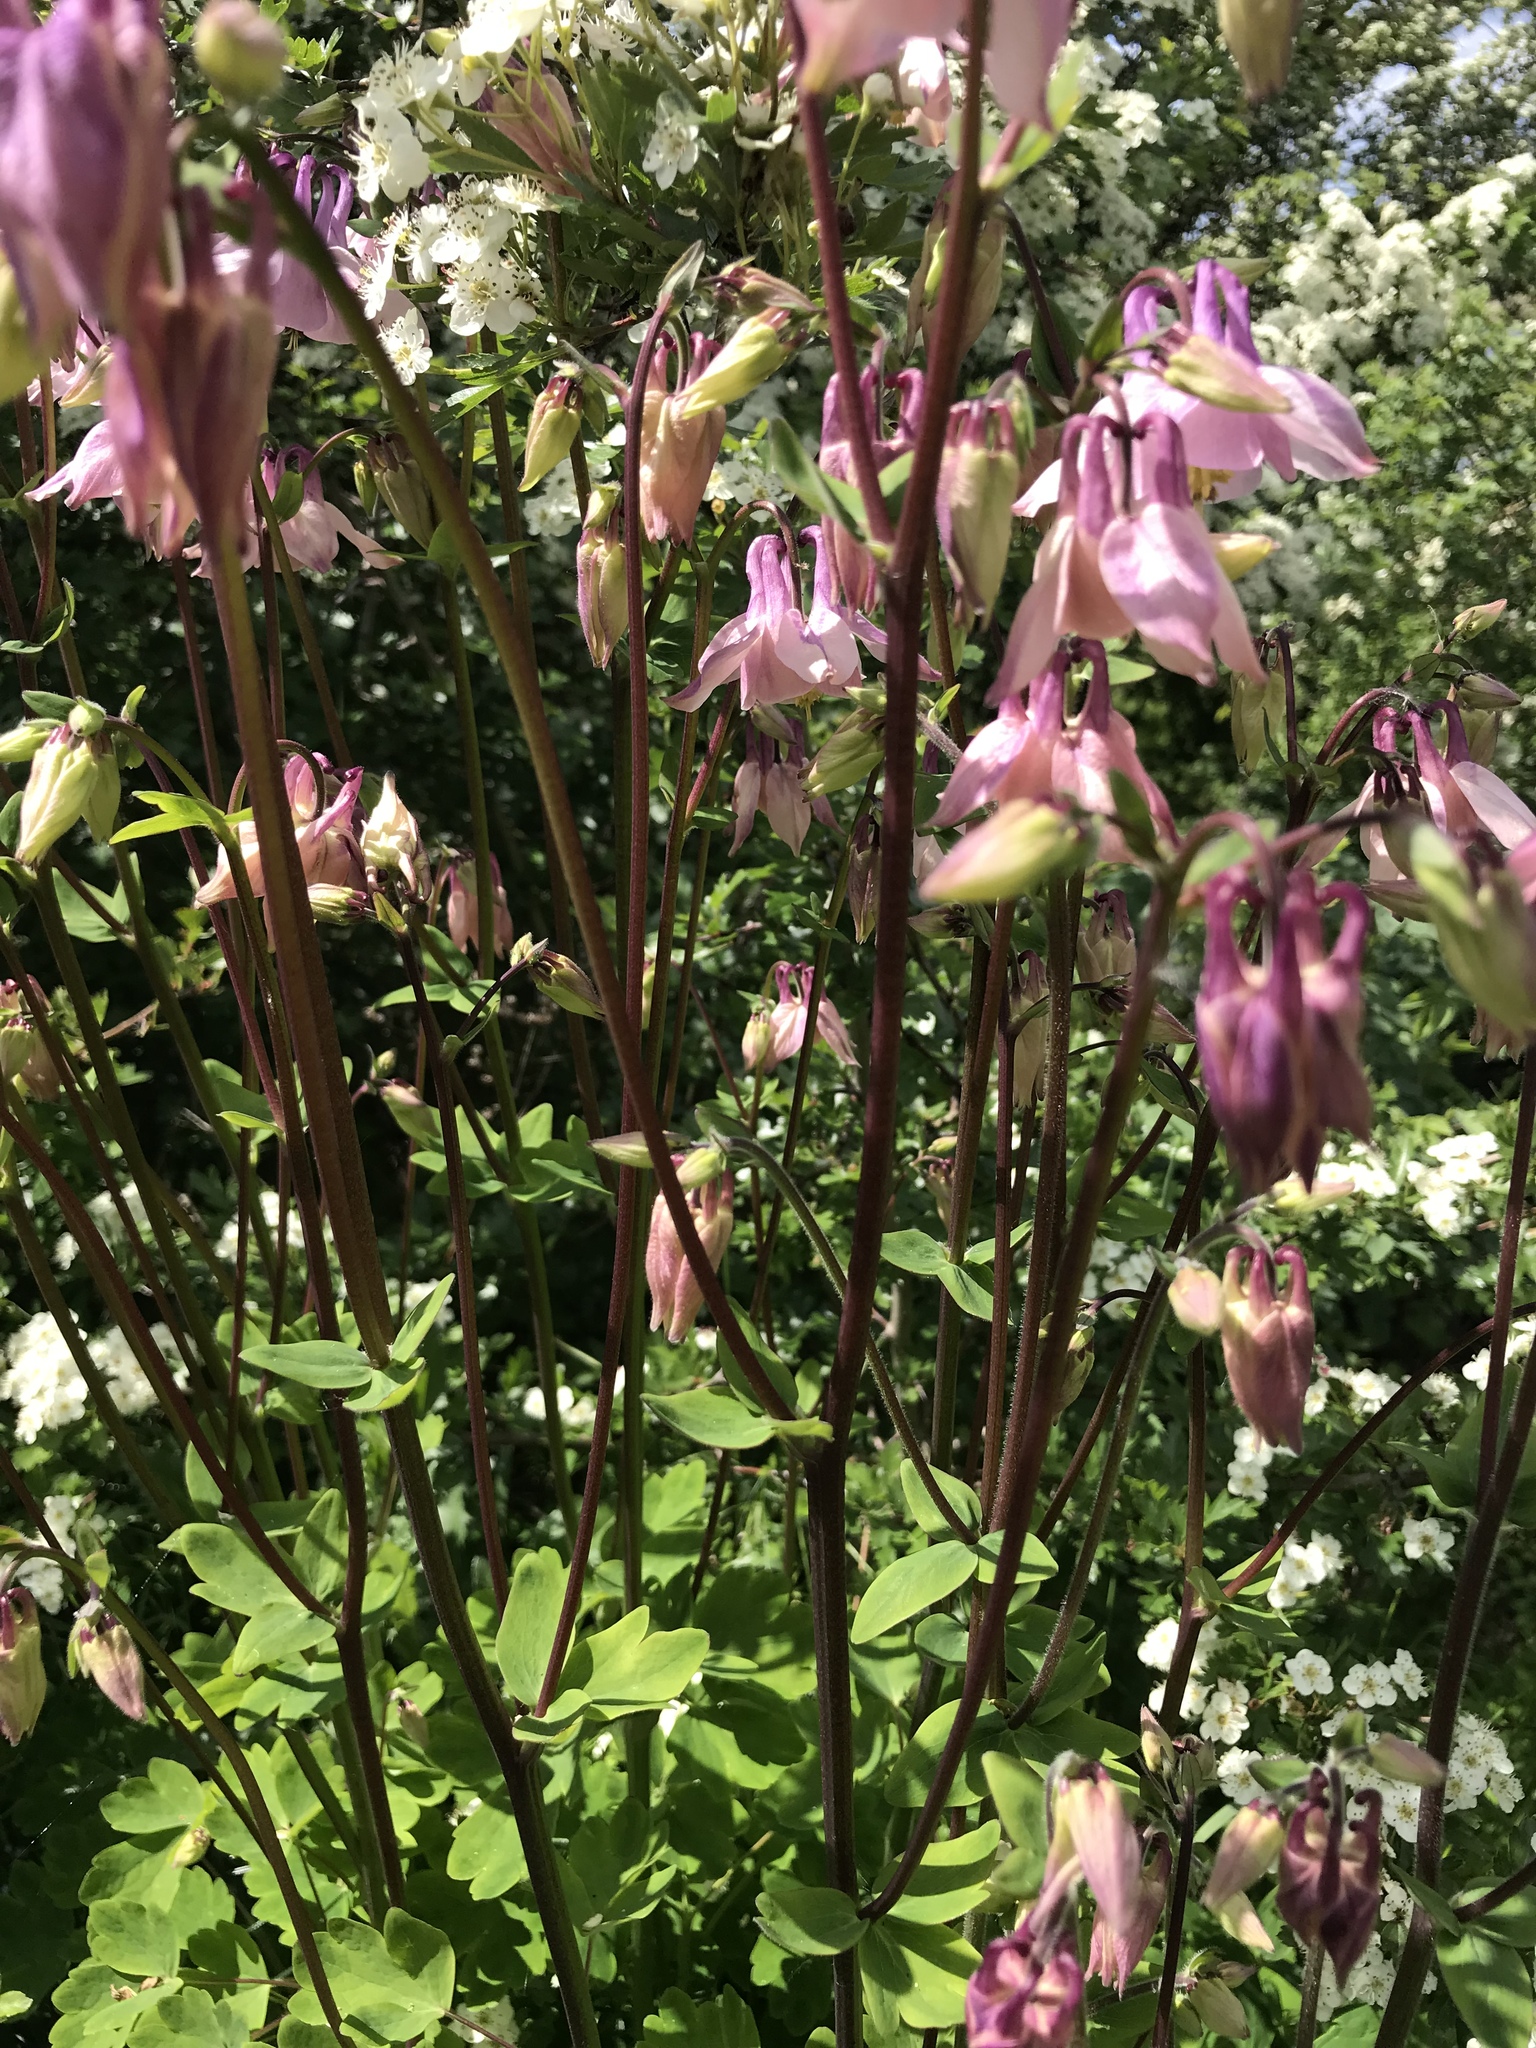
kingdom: Plantae
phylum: Tracheophyta
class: Magnoliopsida
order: Ranunculales
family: Ranunculaceae
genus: Aquilegia
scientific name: Aquilegia vulgaris
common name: Columbine
